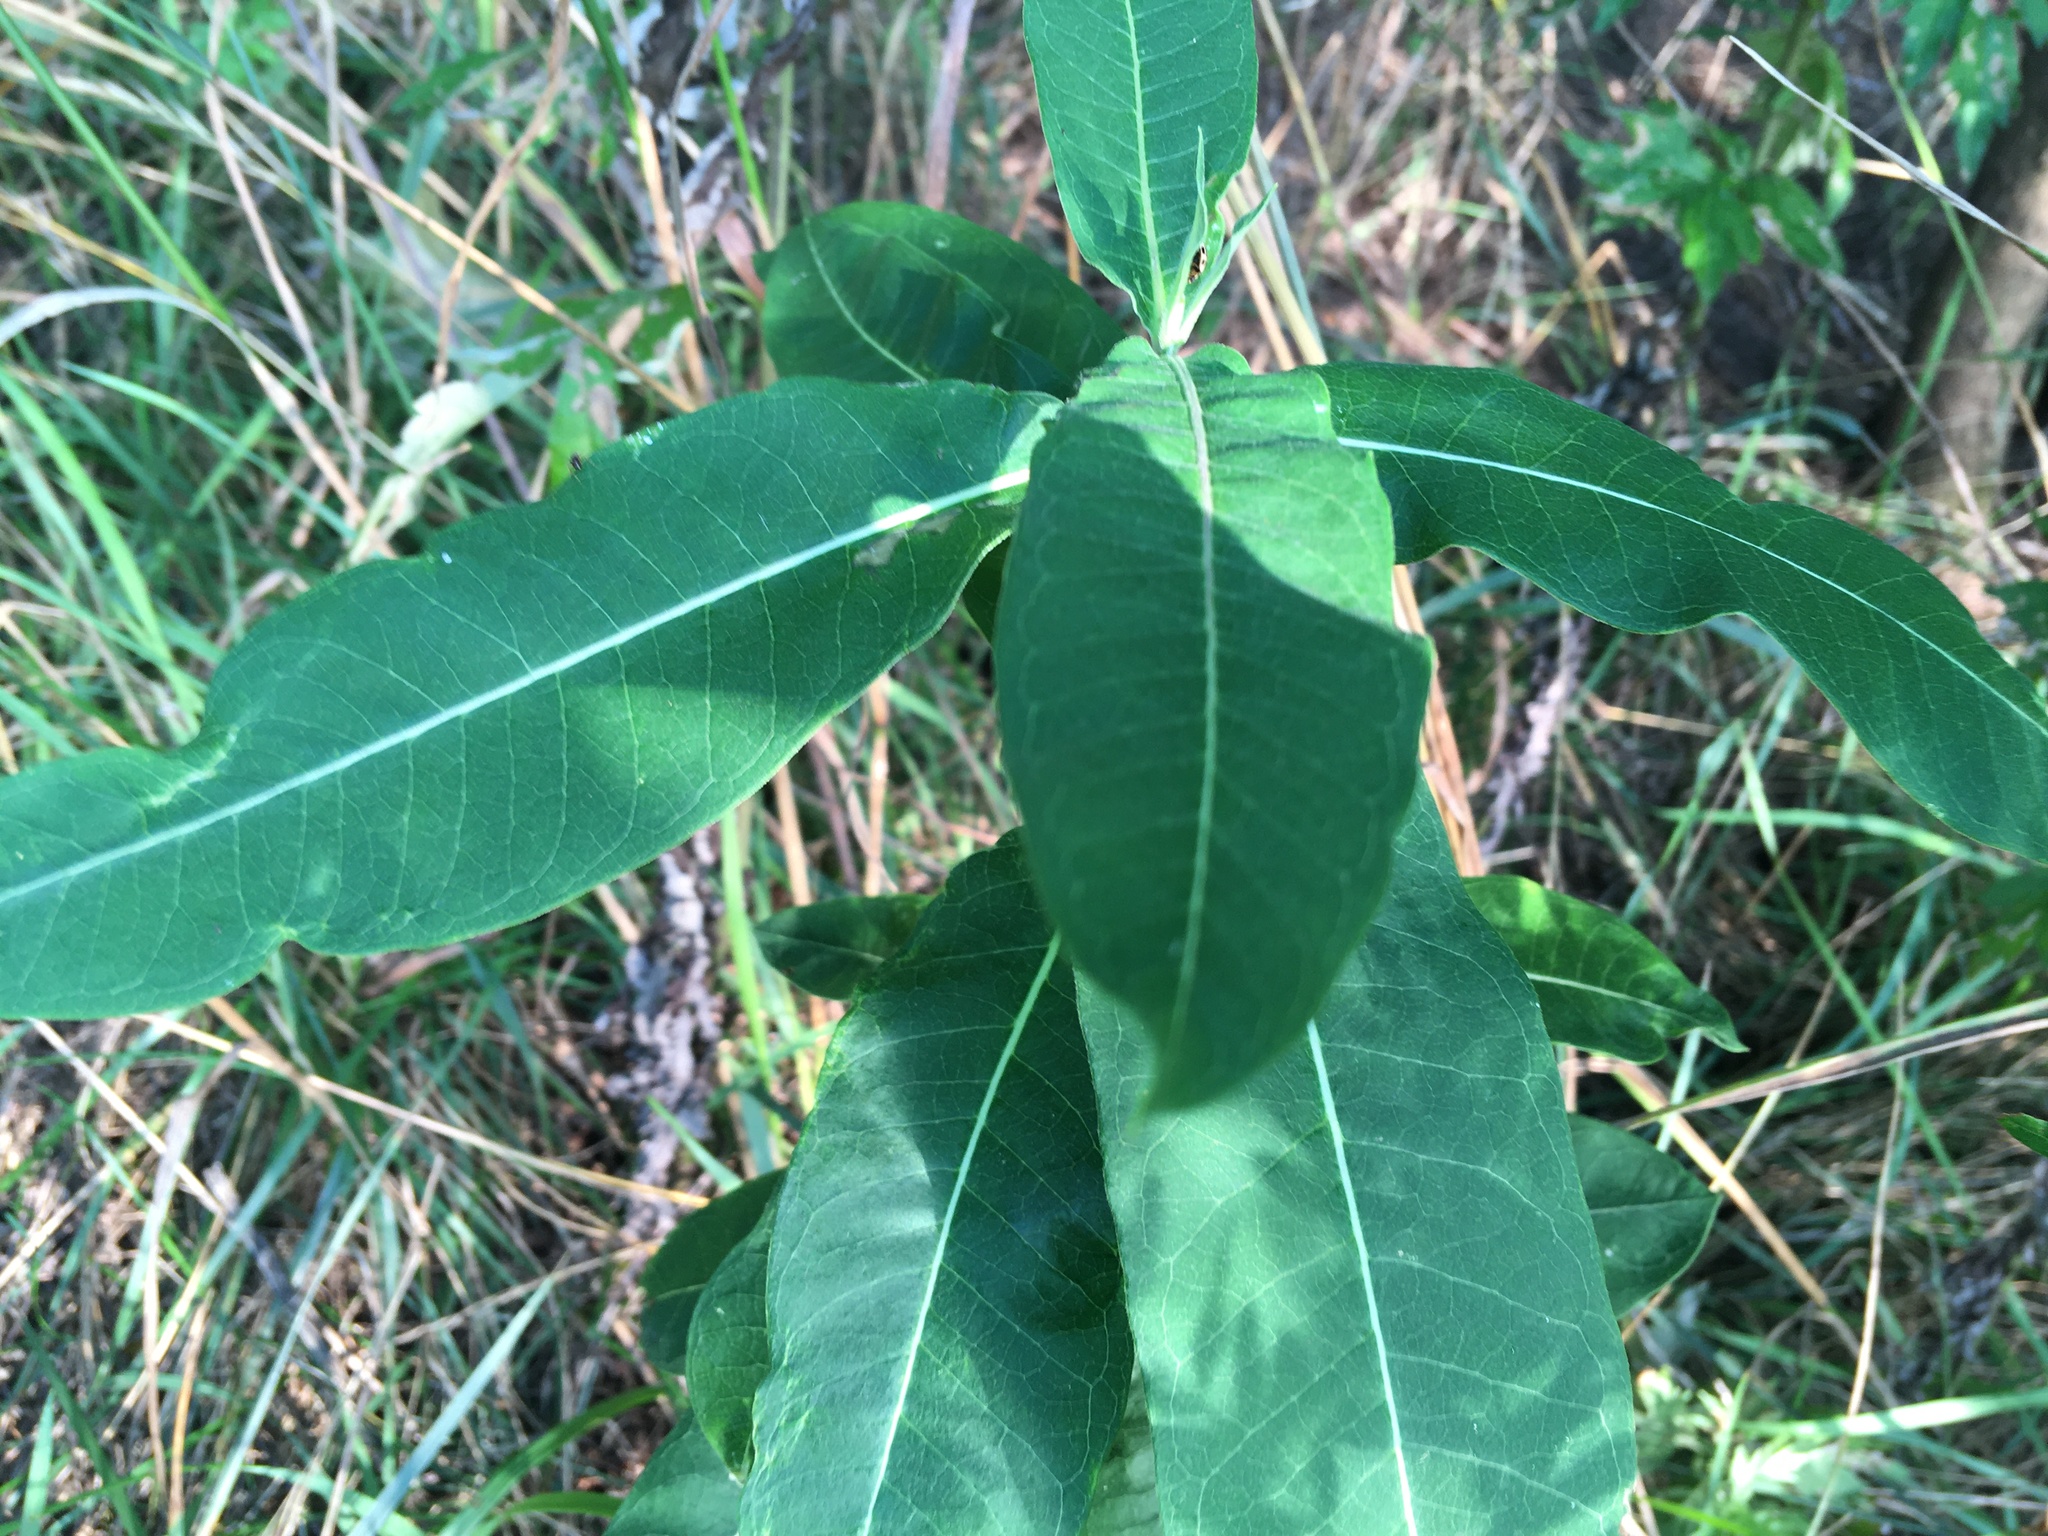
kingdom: Plantae
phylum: Tracheophyta
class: Magnoliopsida
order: Gentianales
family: Apocynaceae
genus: Asclepias
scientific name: Asclepias syriaca
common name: Common milkweed
